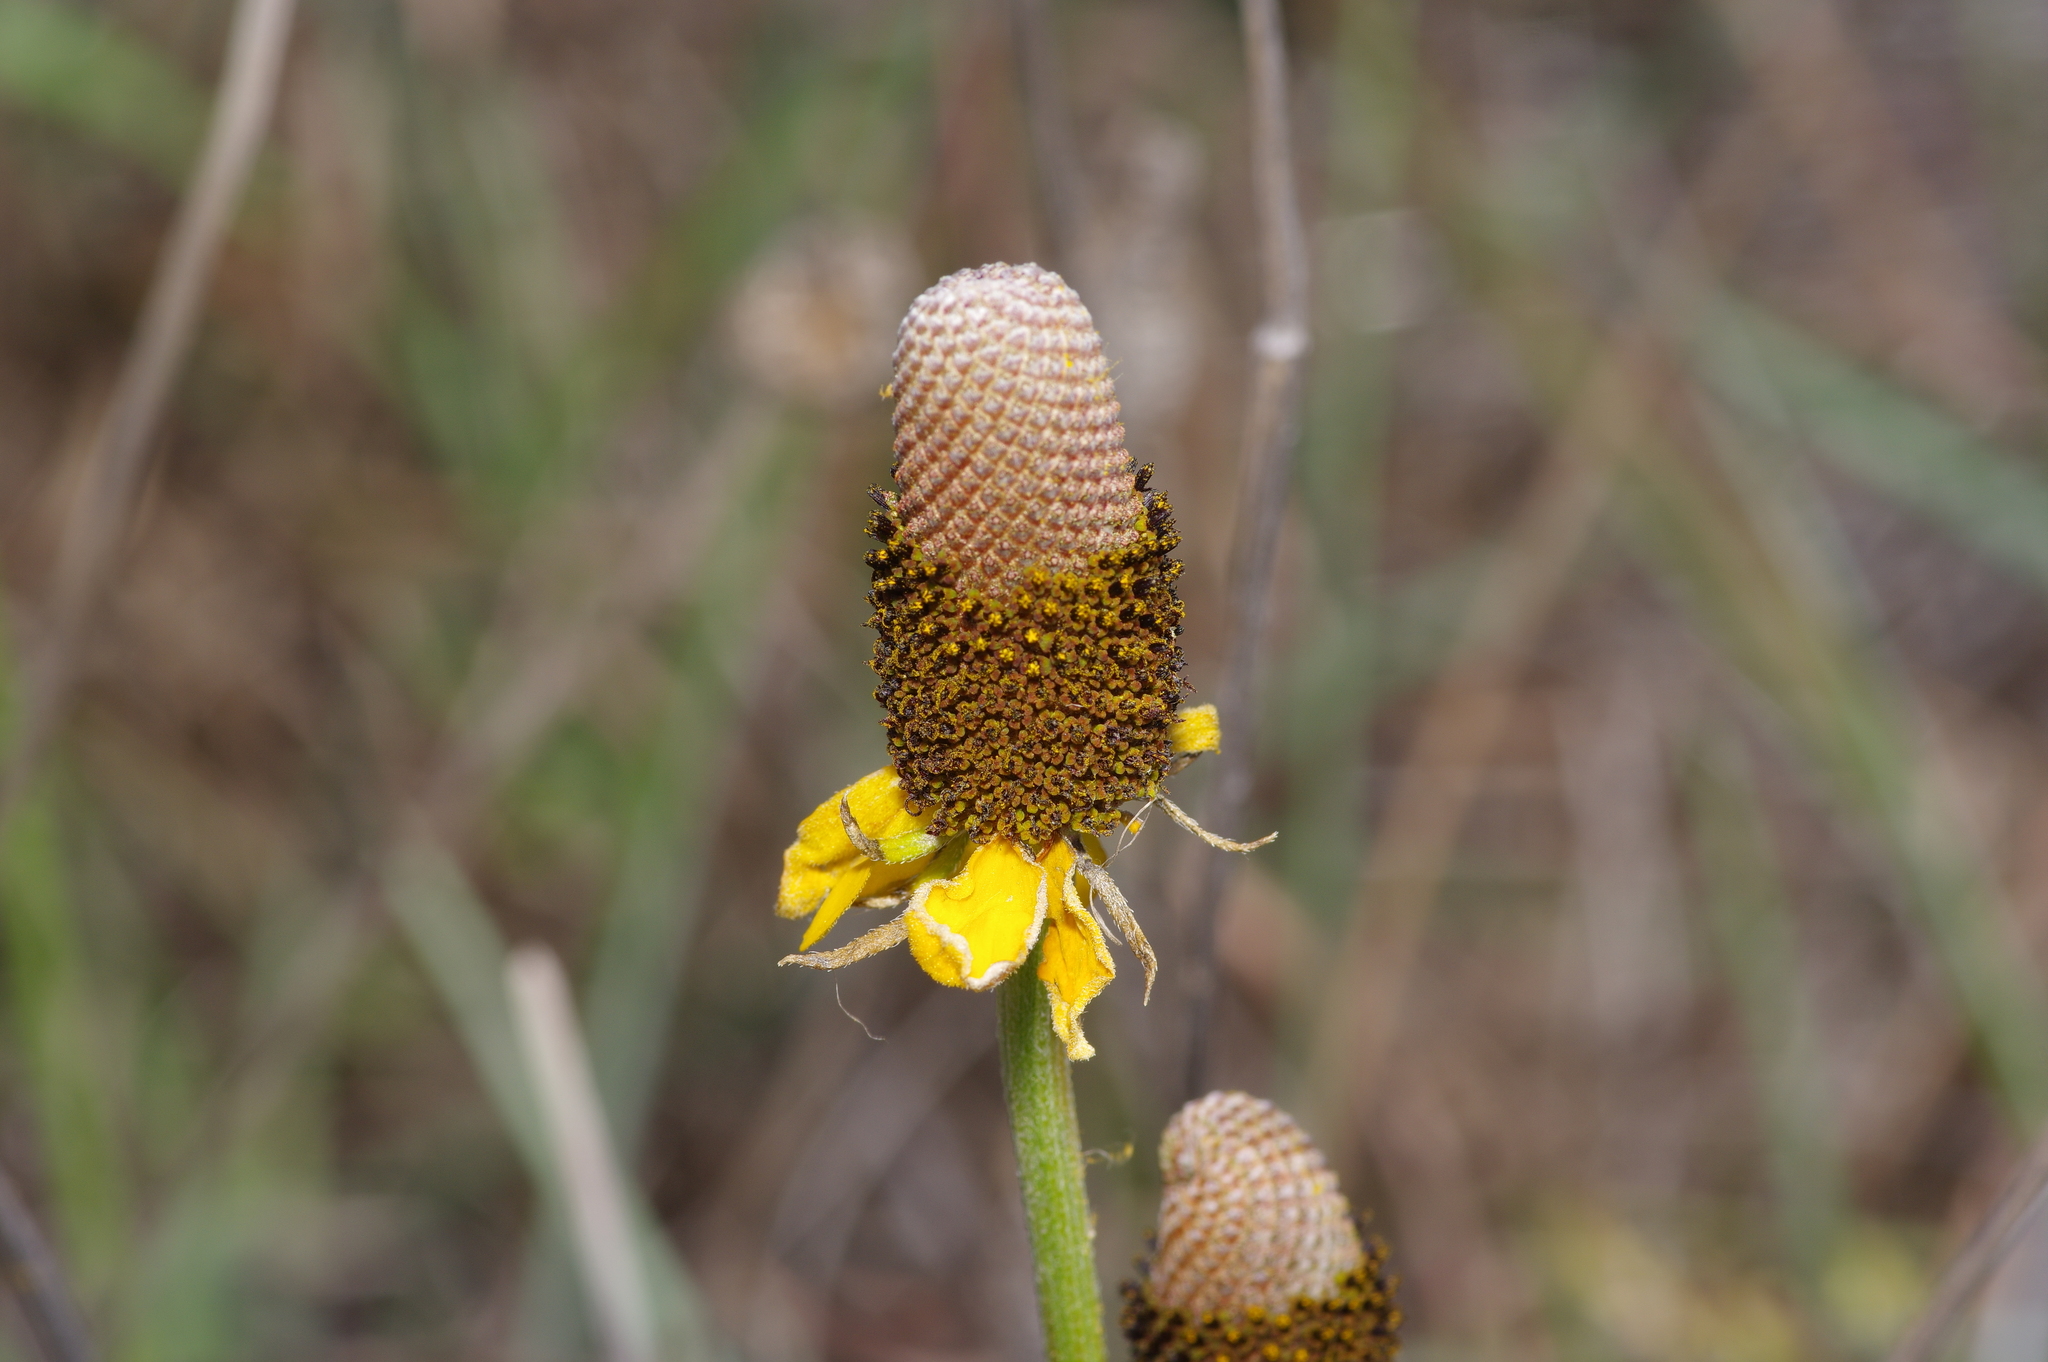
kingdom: Plantae
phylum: Tracheophyta
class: Magnoliopsida
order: Asterales
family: Asteraceae
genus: Ratibida
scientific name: Ratibida peduncularis
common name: Naked prairie-coneflower
